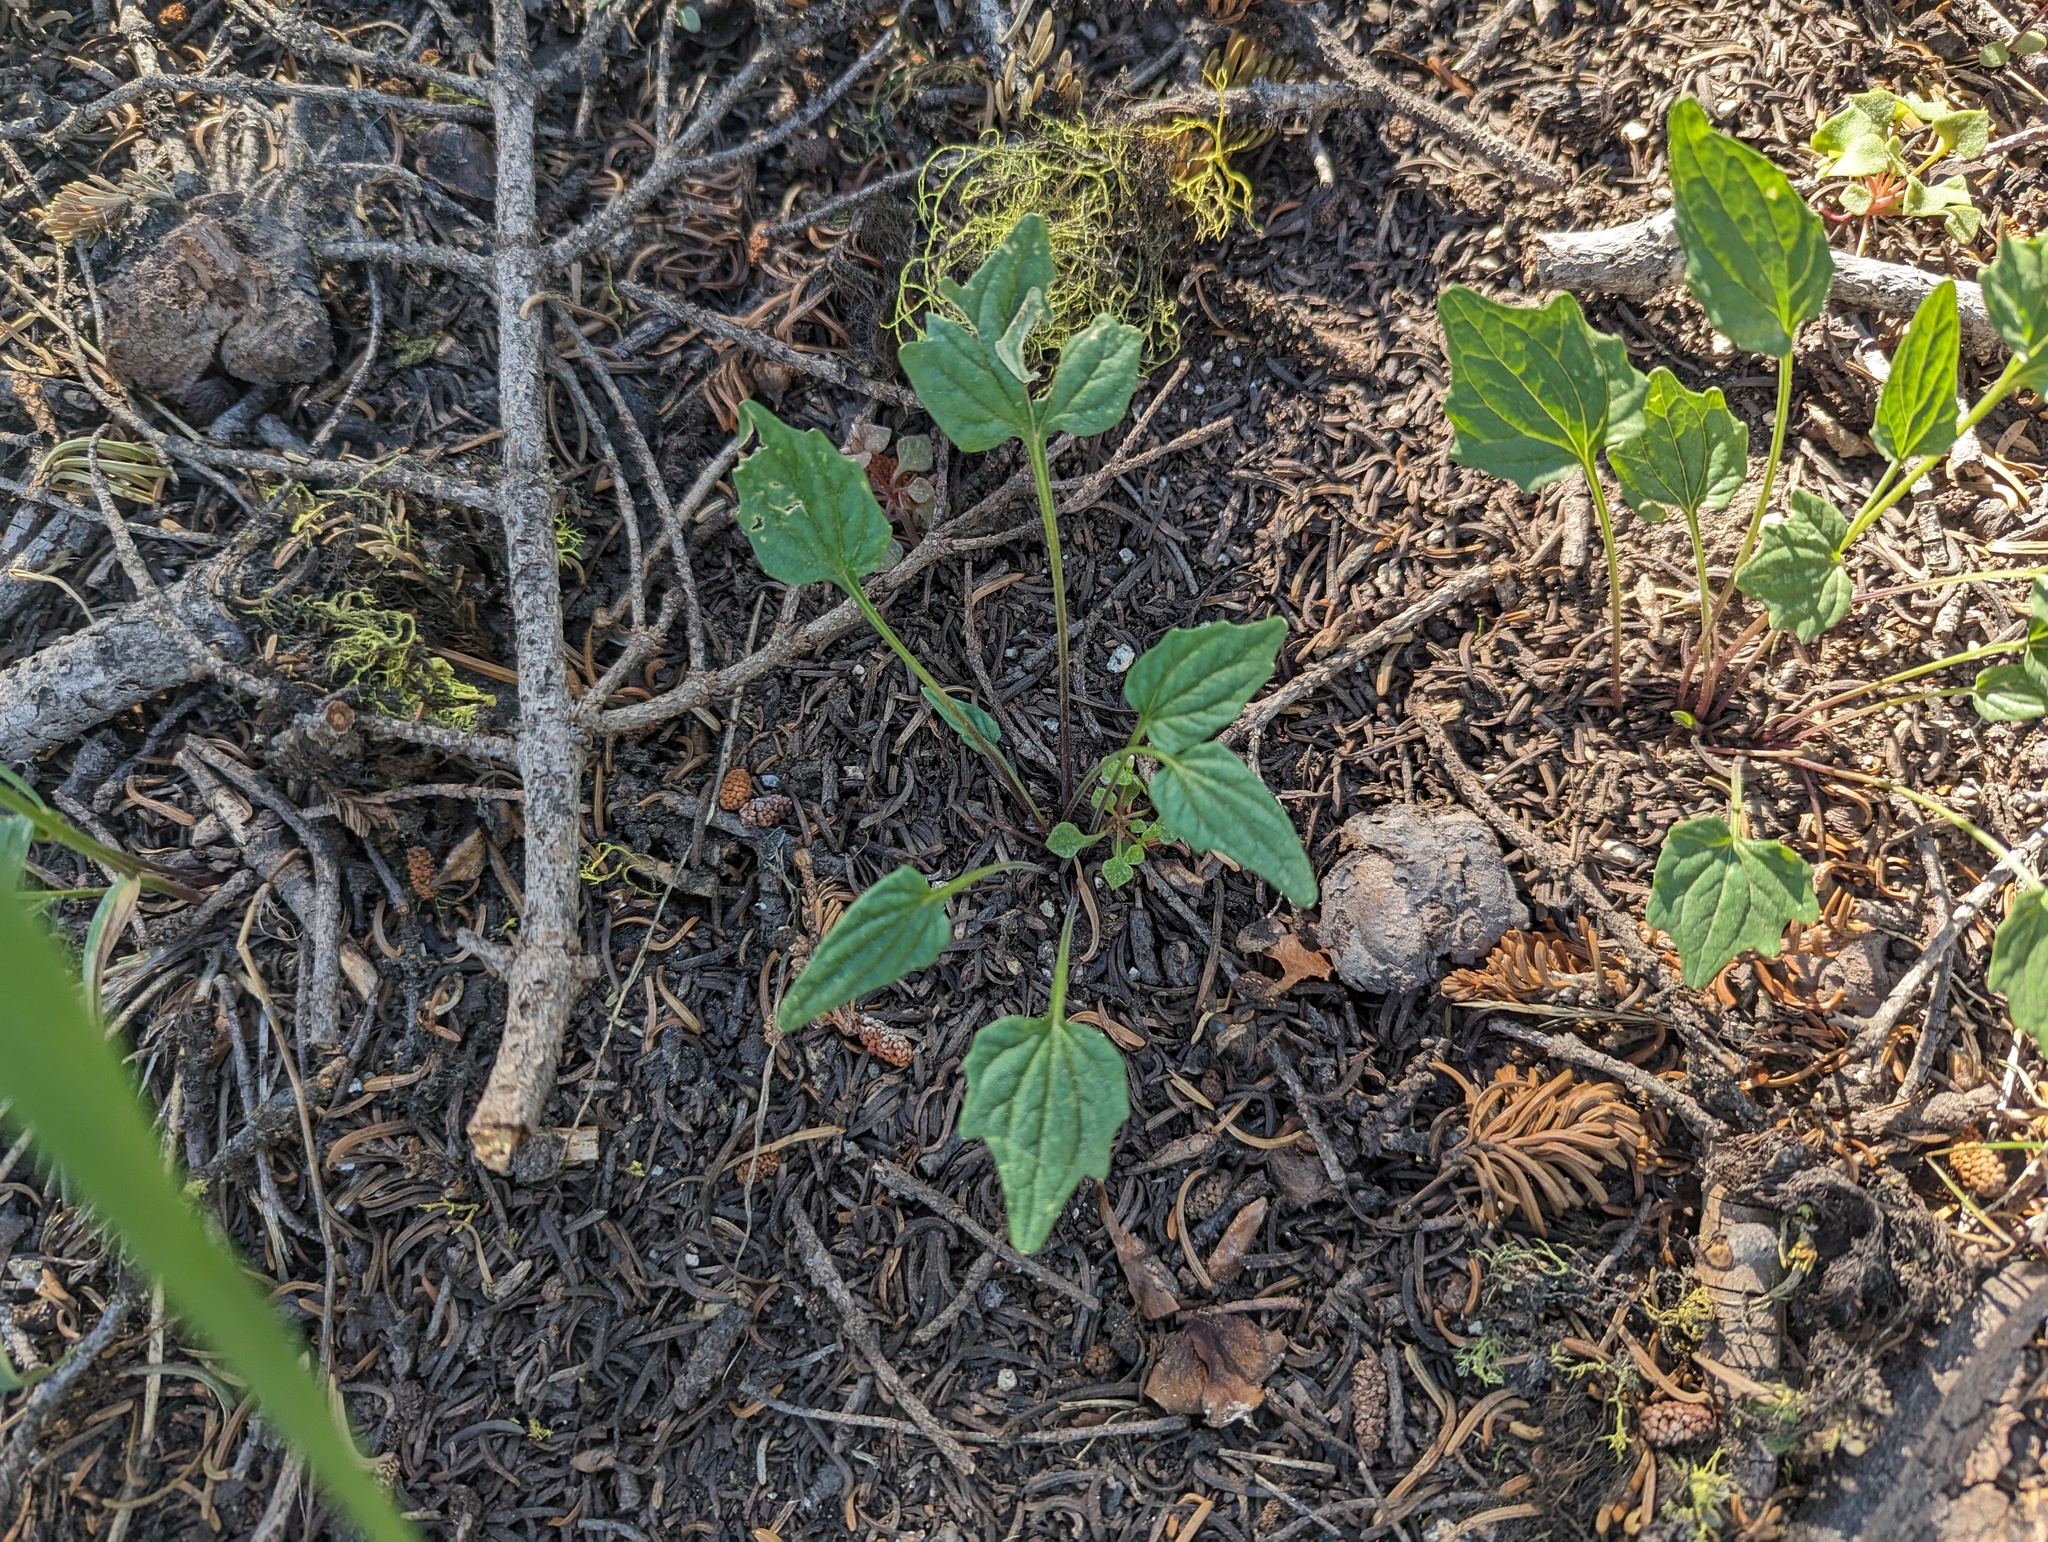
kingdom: Plantae
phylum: Tracheophyta
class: Magnoliopsida
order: Malpighiales
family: Violaceae
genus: Viola
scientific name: Viola purpurea
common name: Pine violet
